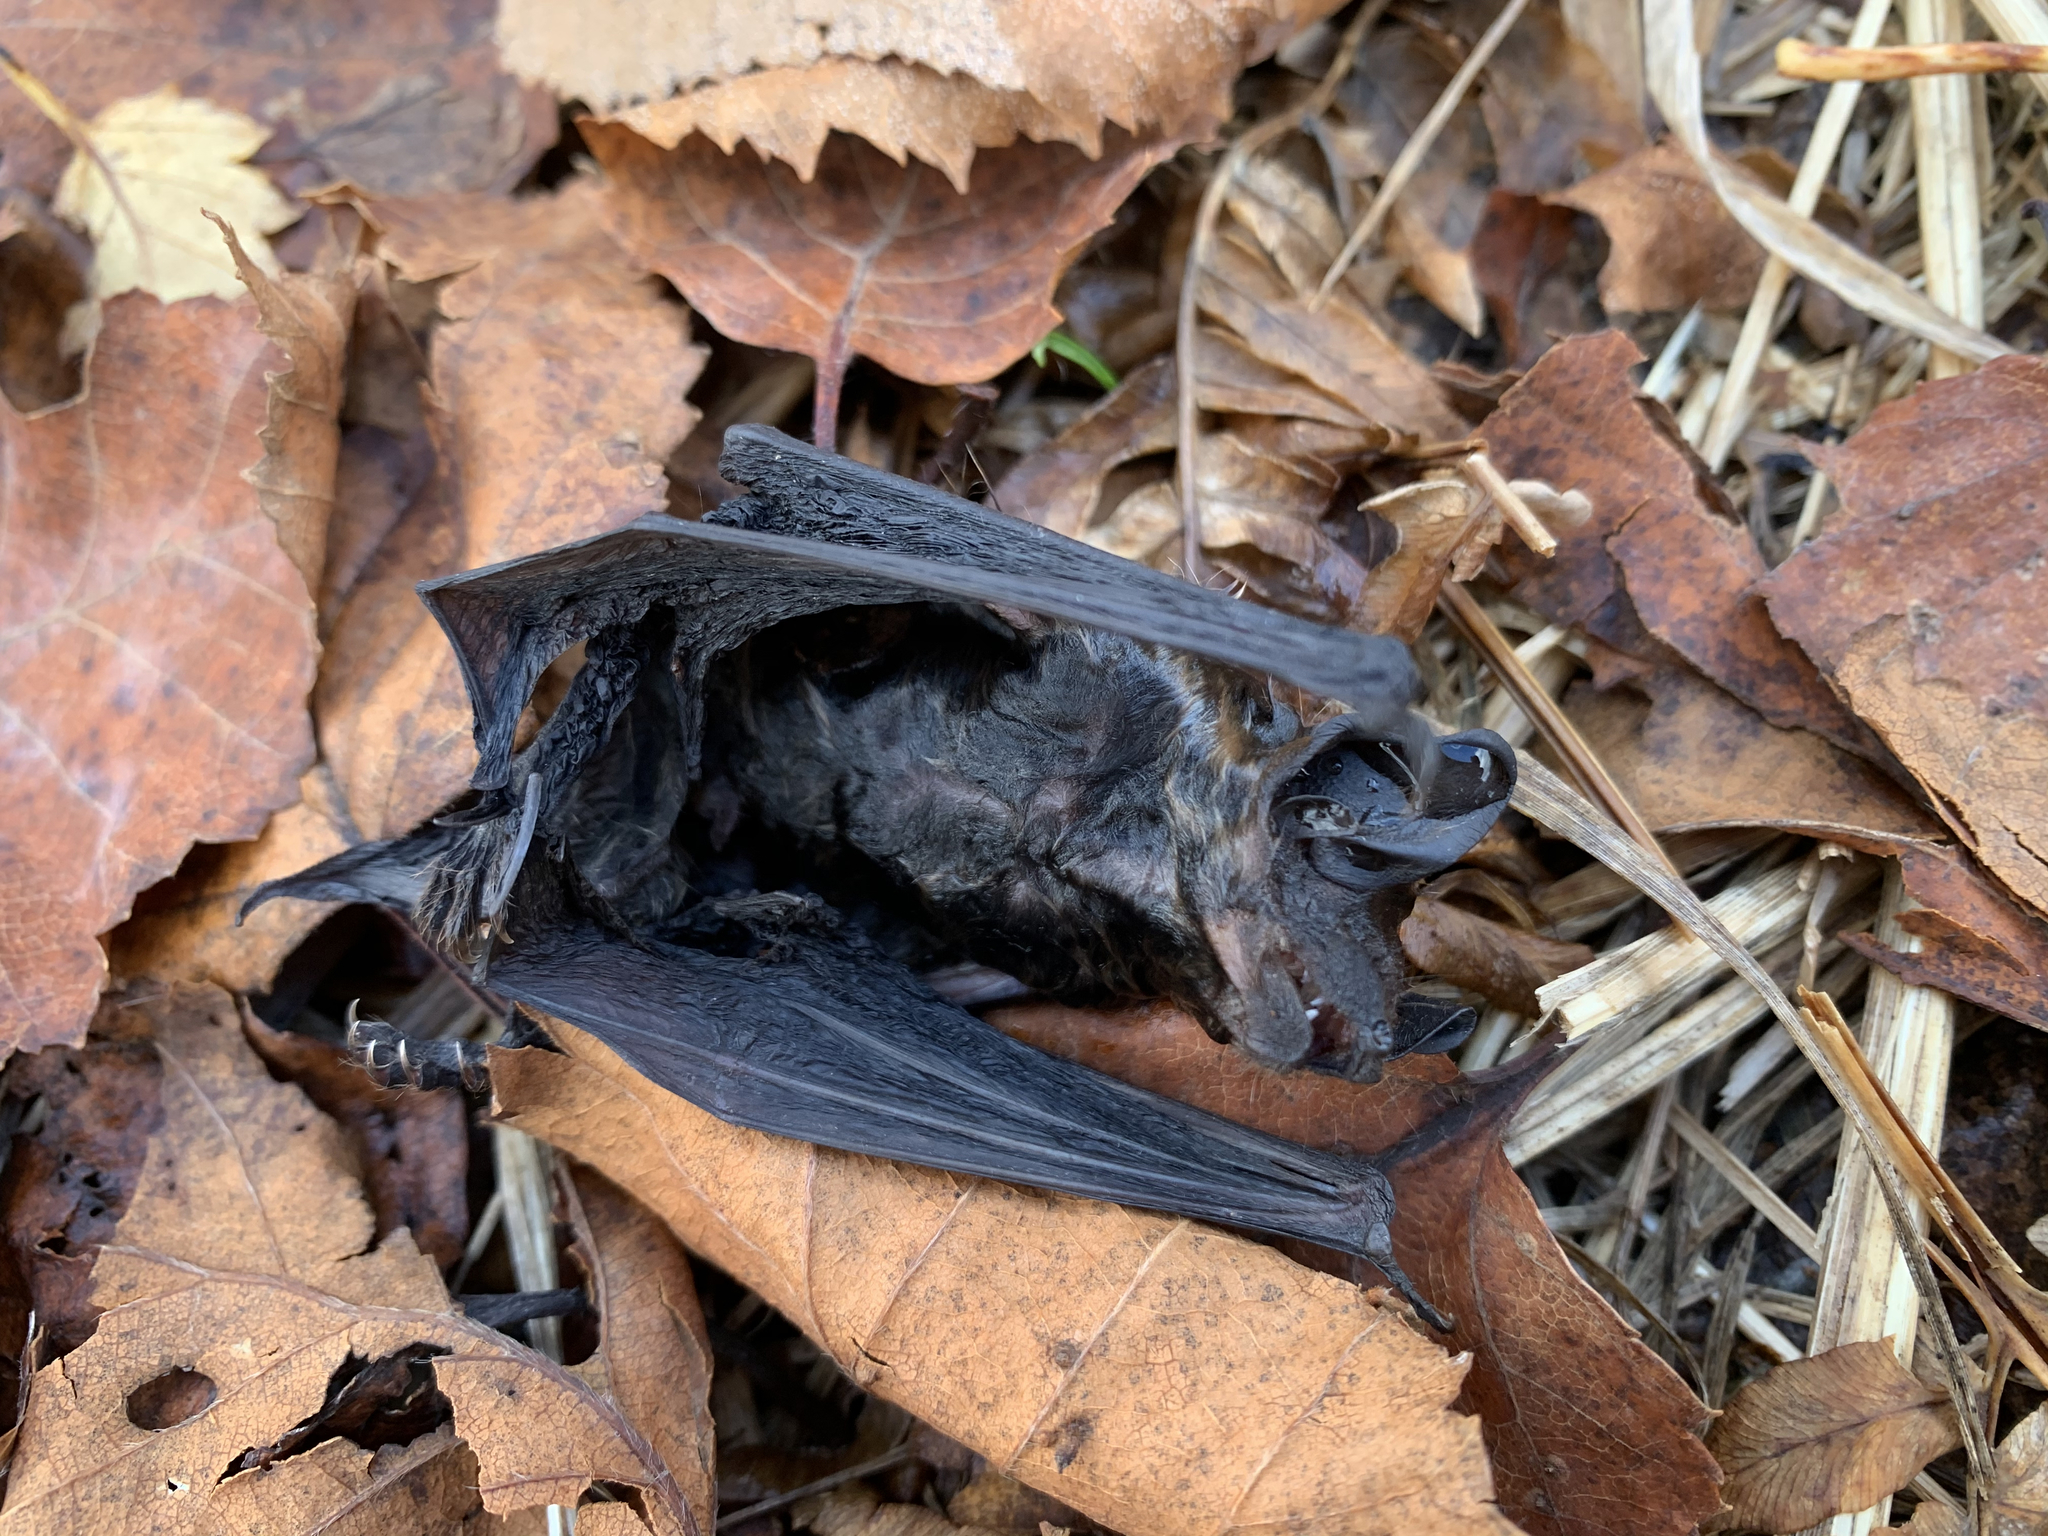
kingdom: Animalia
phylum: Chordata
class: Mammalia
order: Chiroptera
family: Vespertilionidae
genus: Eptesicus
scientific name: Eptesicus nilssonii
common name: Northern bat
